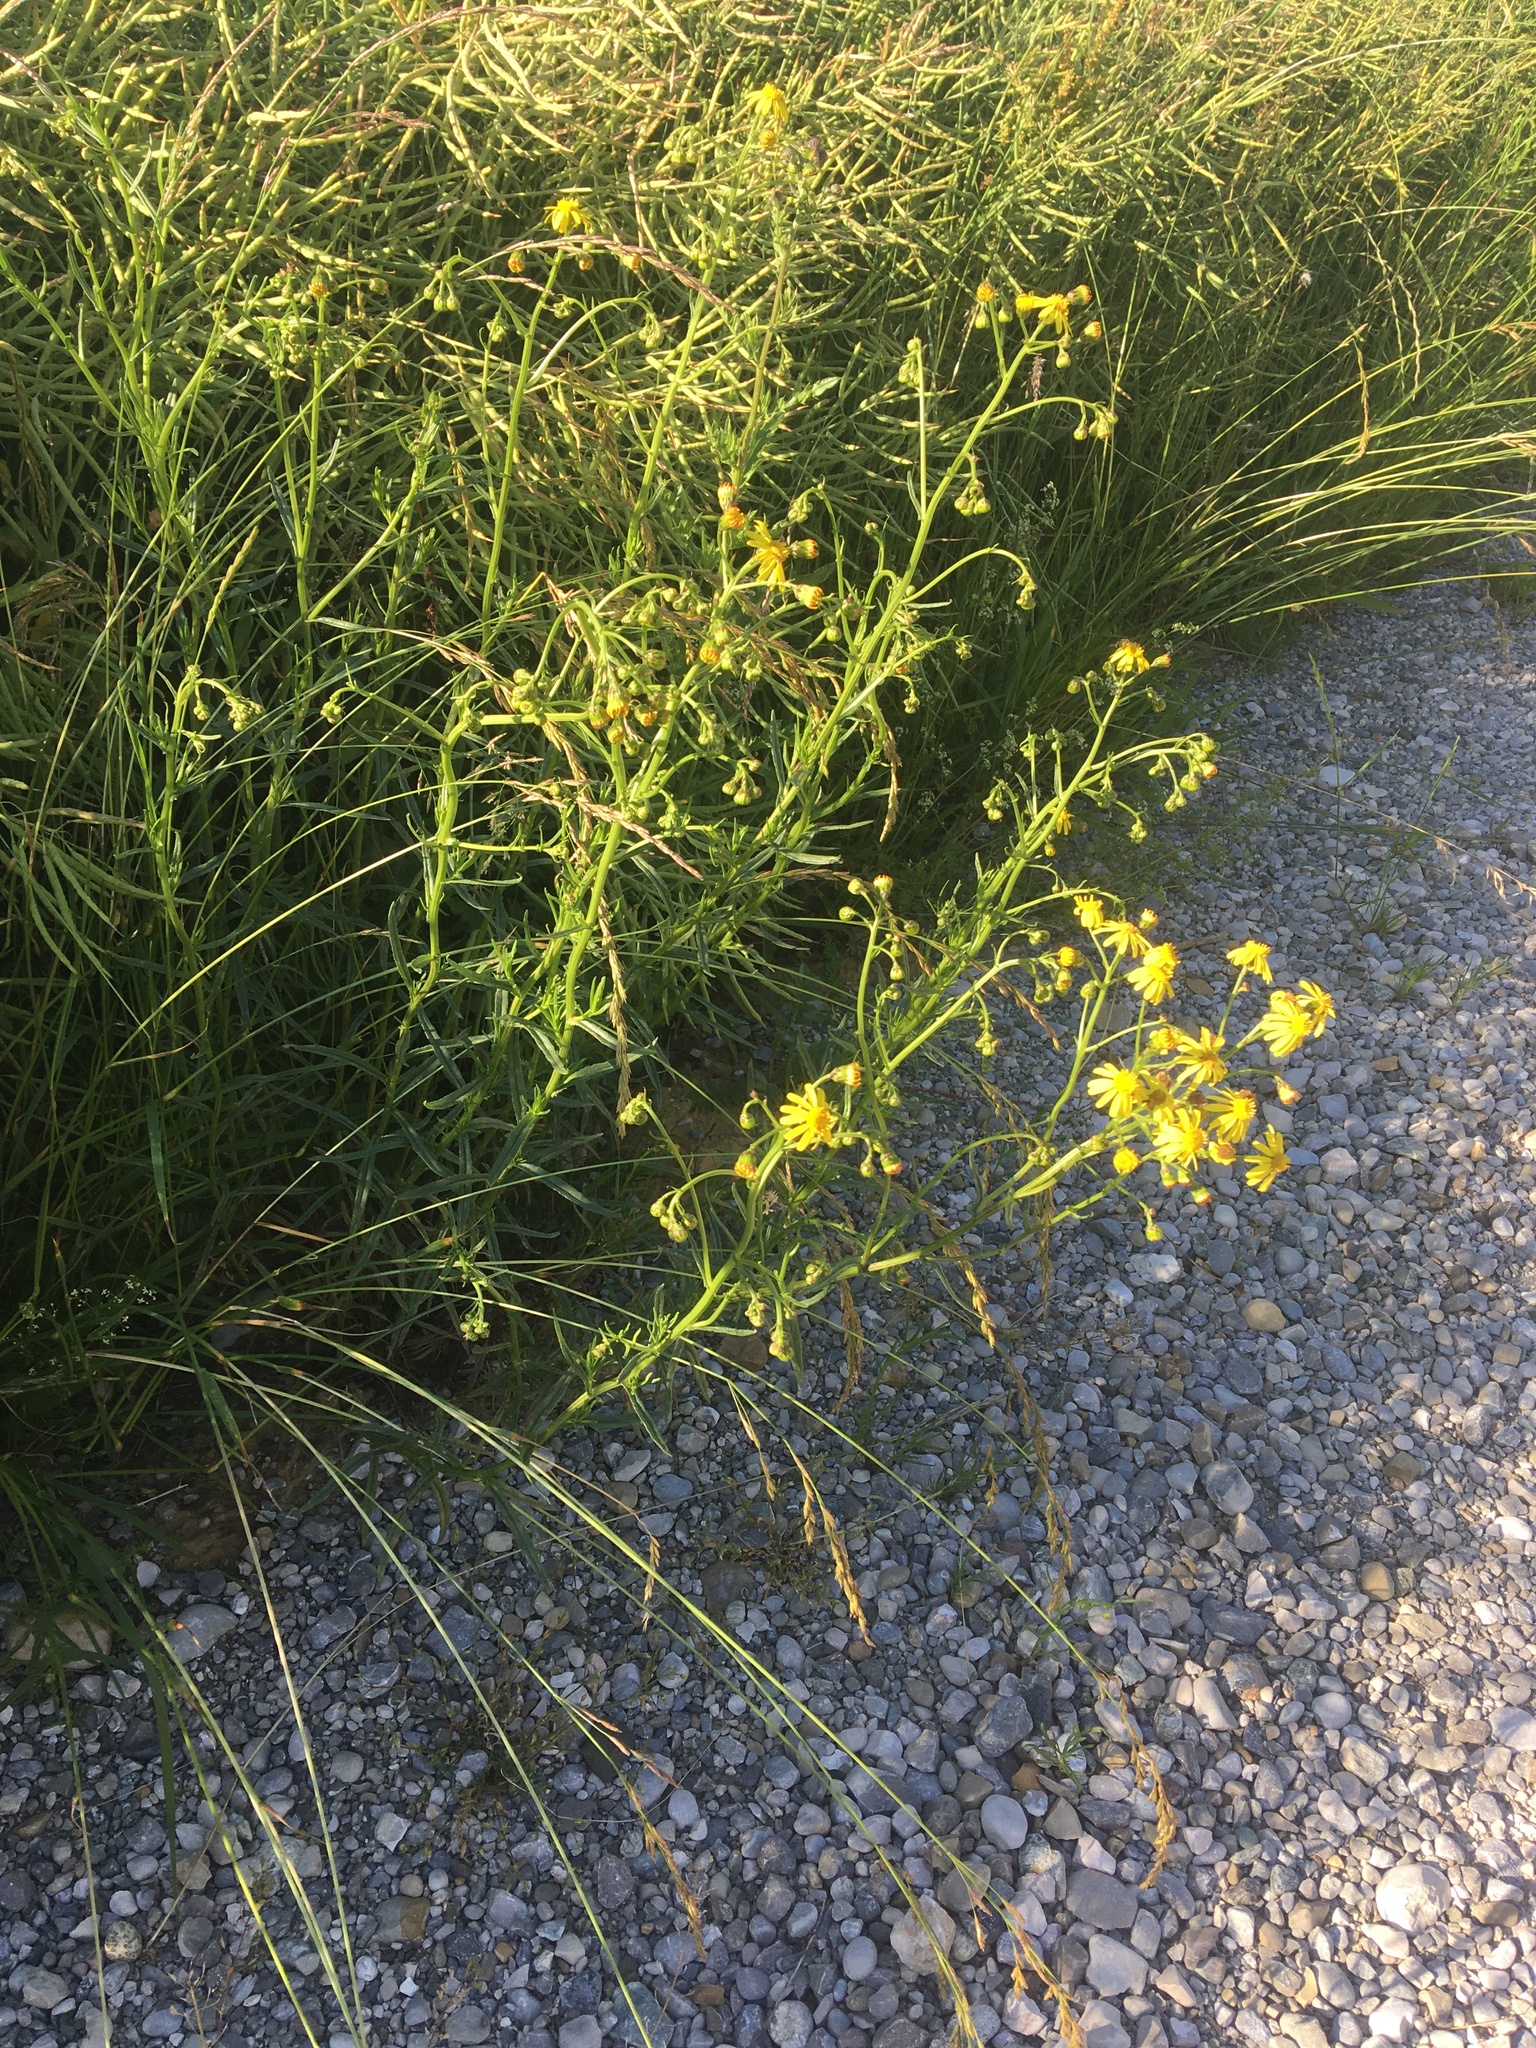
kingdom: Plantae
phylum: Tracheophyta
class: Magnoliopsida
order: Asterales
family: Asteraceae
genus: Senecio
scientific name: Senecio inaequidens
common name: Narrow-leaved ragwort
